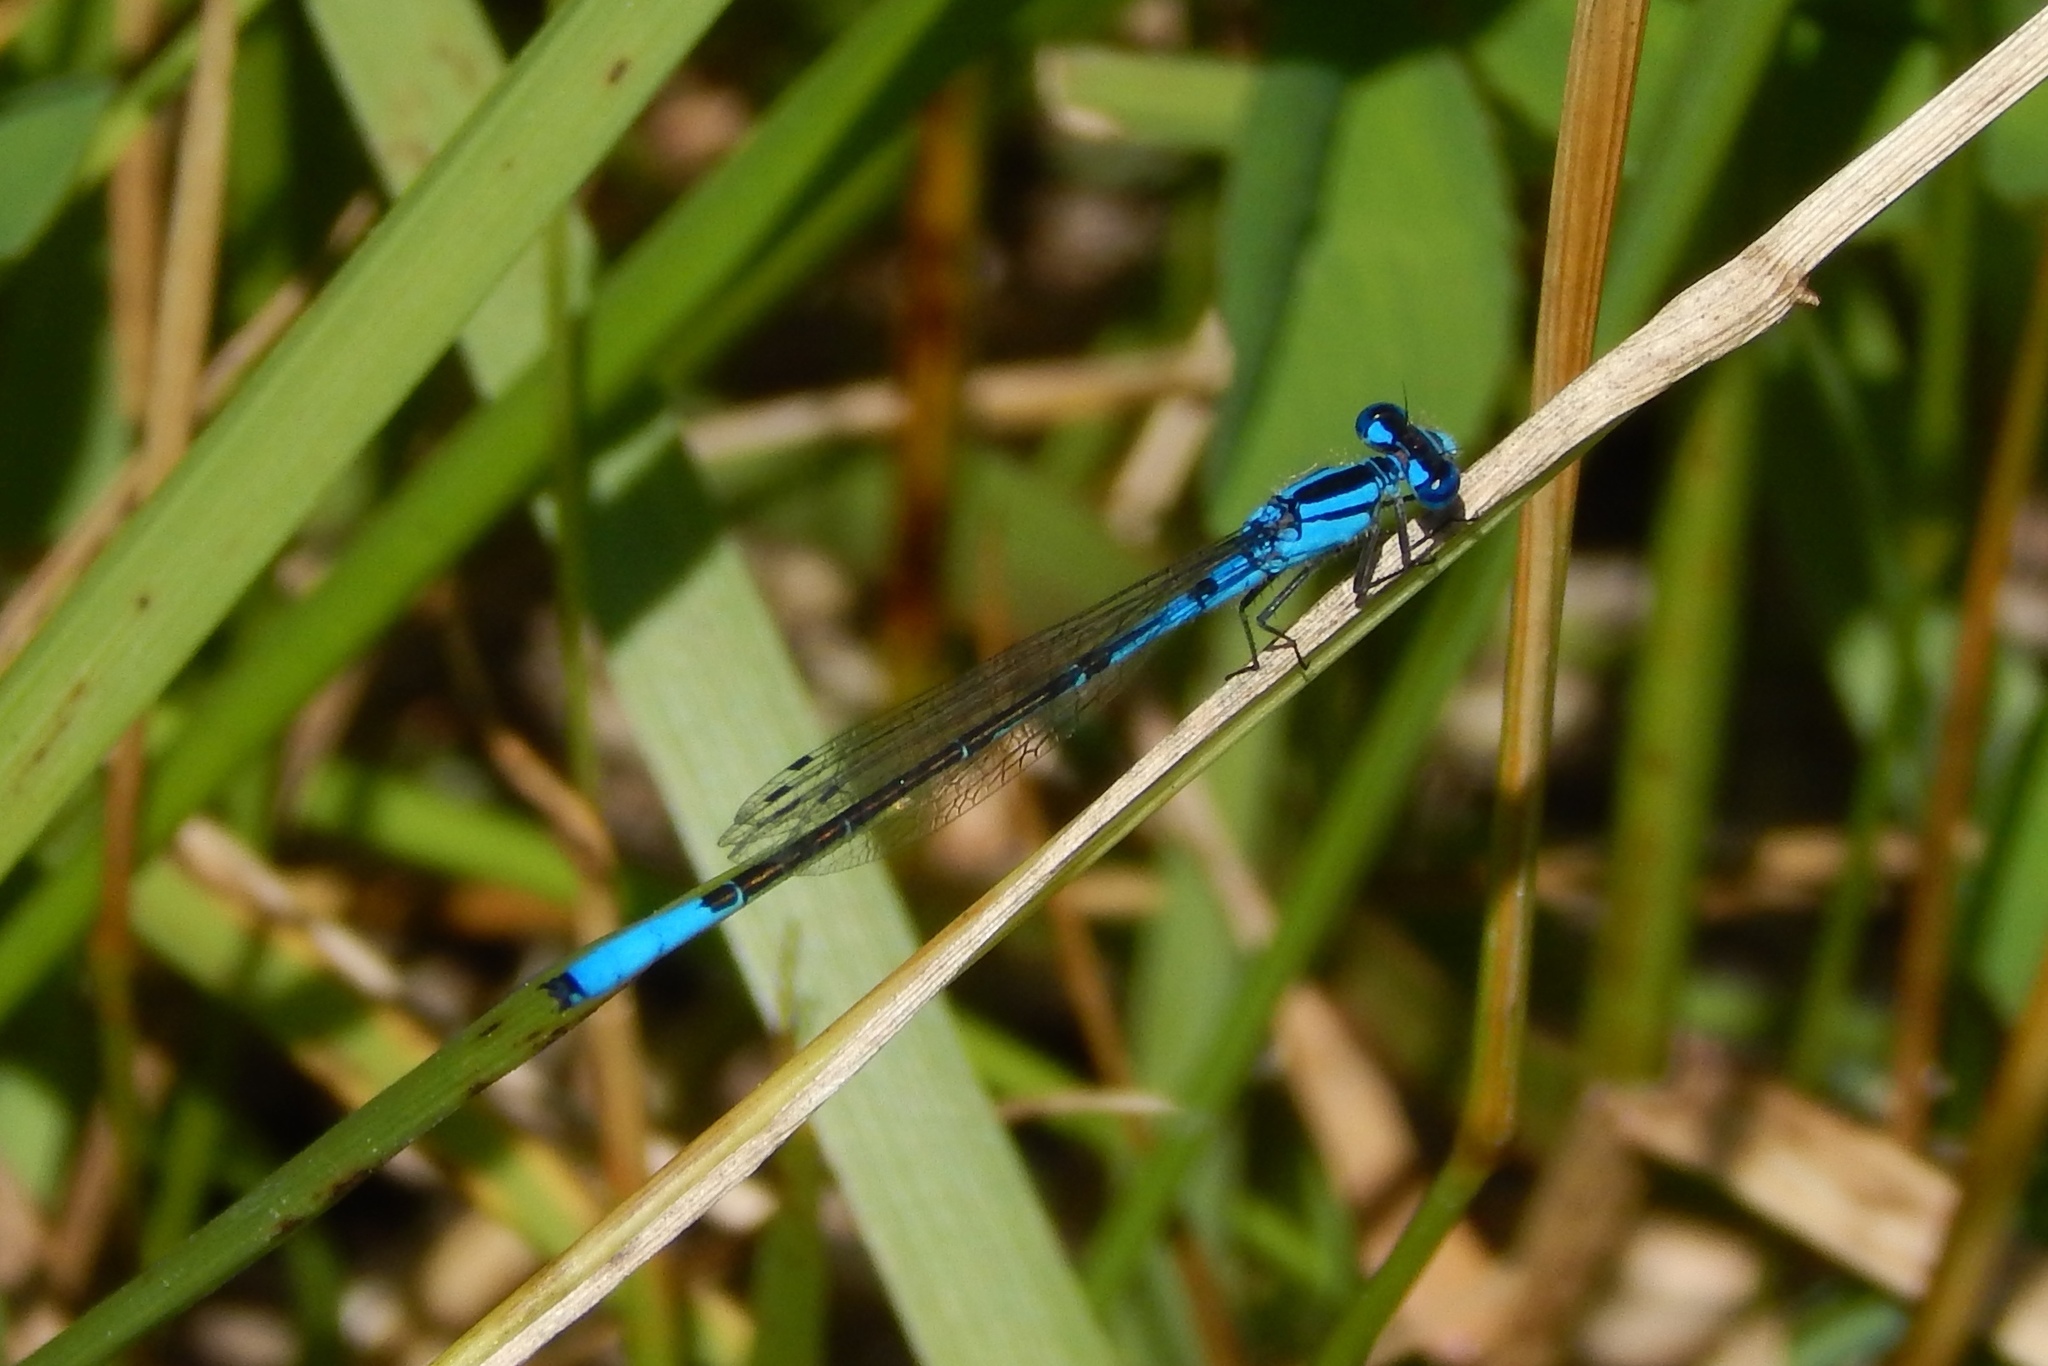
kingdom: Animalia
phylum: Arthropoda
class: Insecta
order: Odonata
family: Coenagrionidae
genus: Enallagma
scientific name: Enallagma aspersum
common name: Azure bluet
